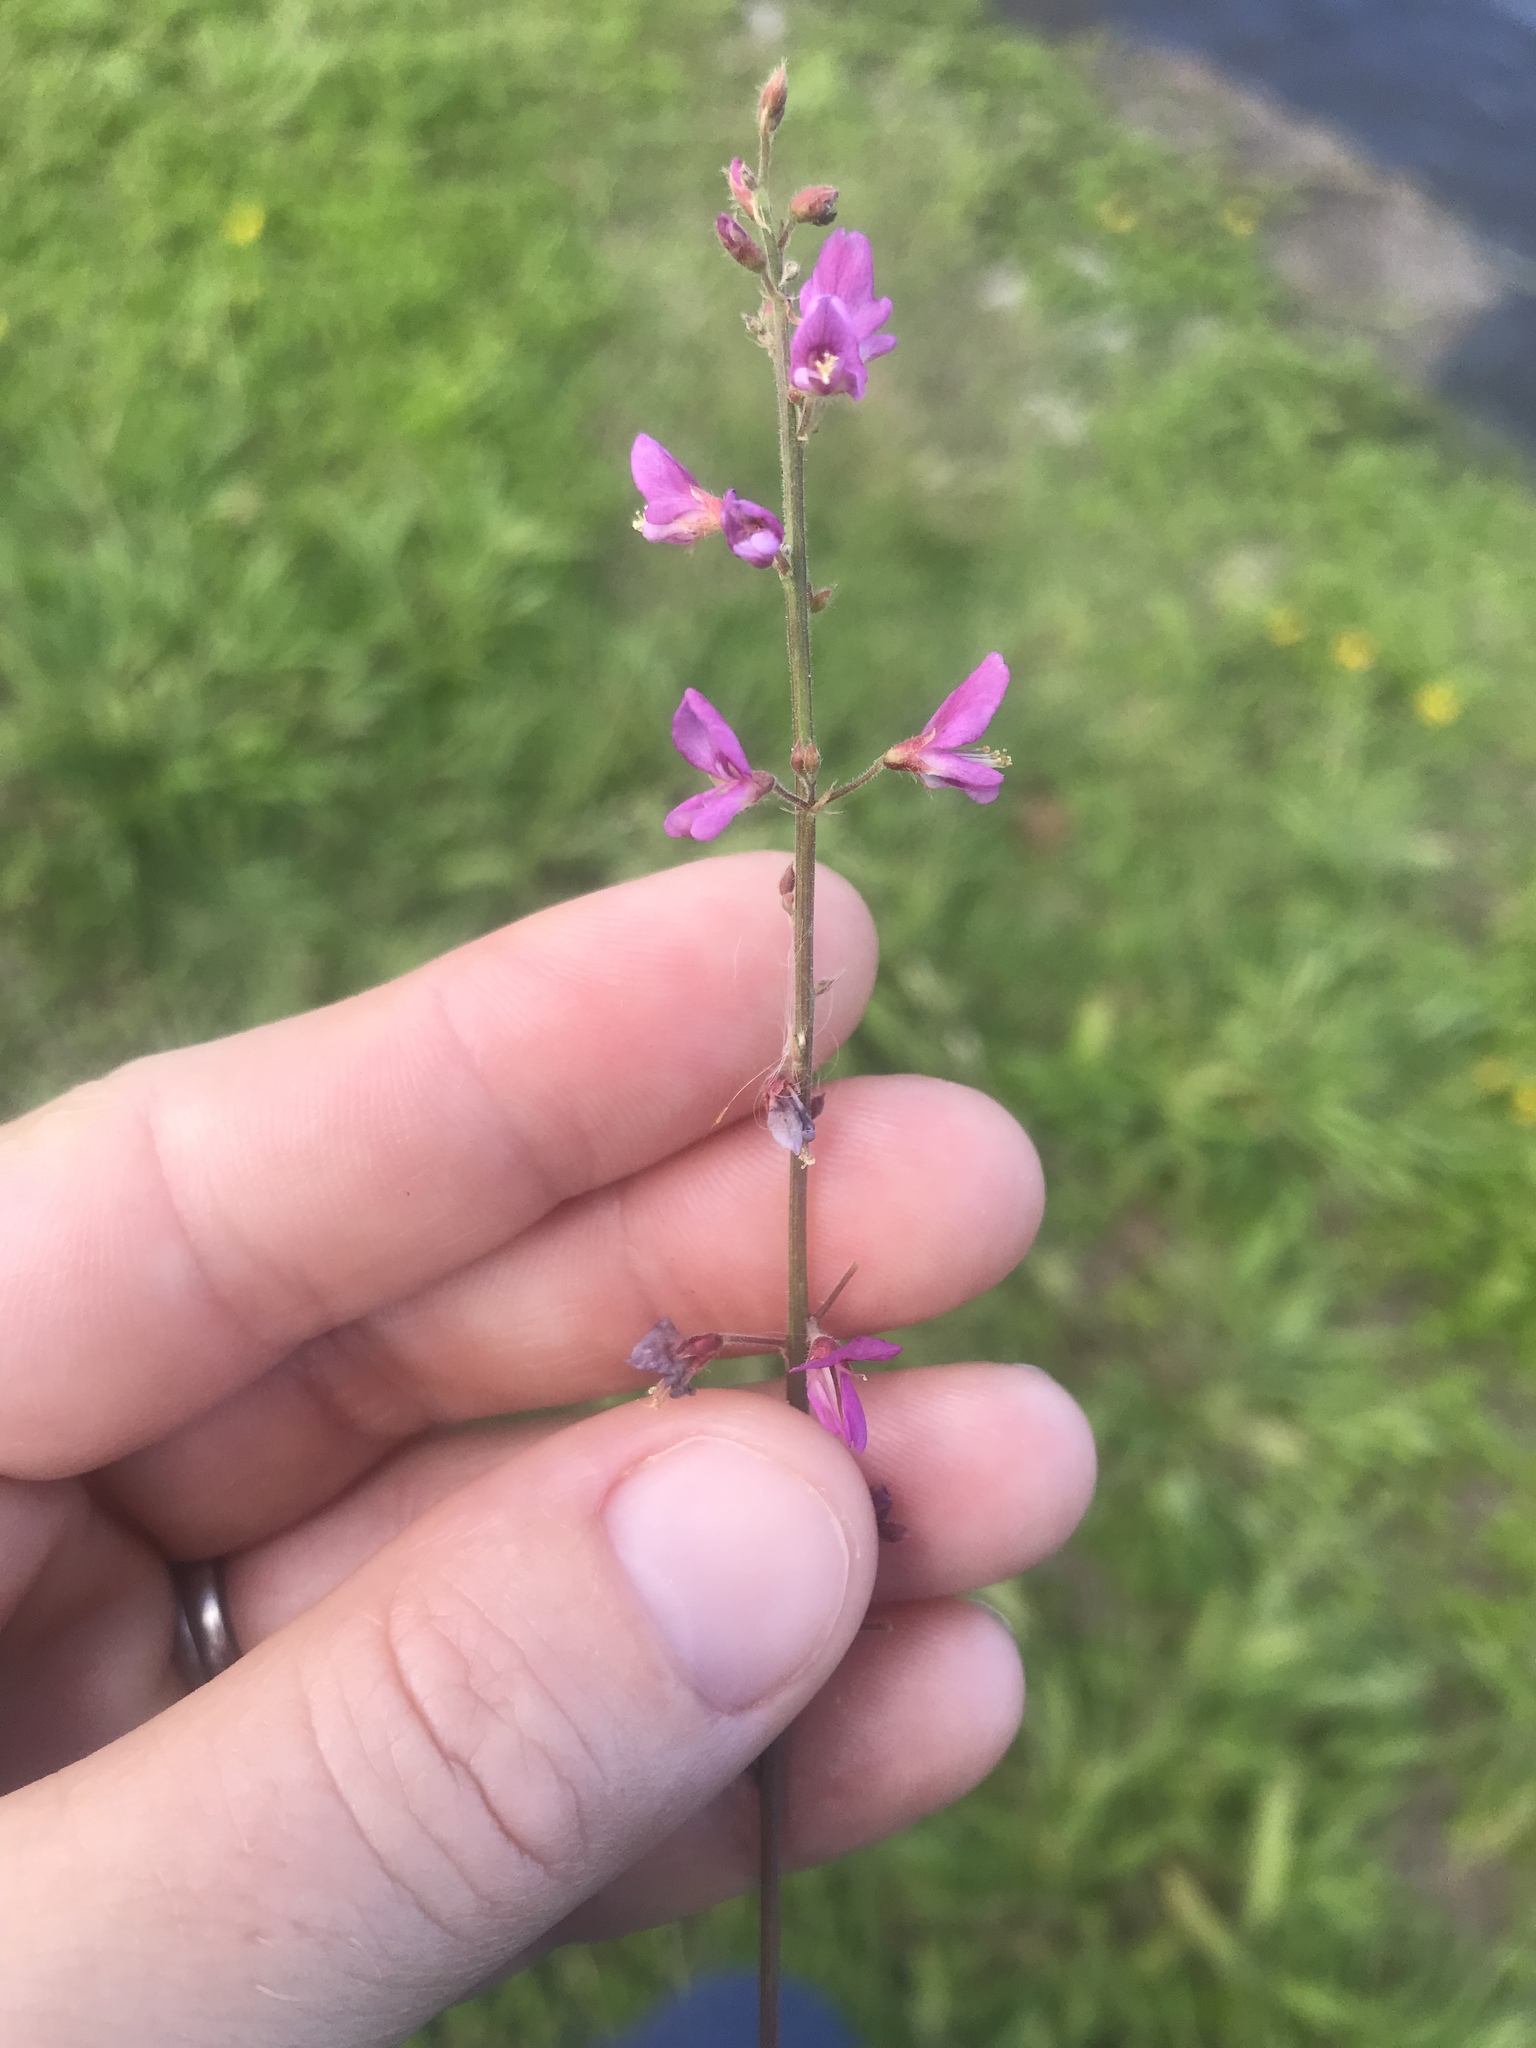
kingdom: Plantae
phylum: Tracheophyta
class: Magnoliopsida
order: Fabales
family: Fabaceae
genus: Desmodium
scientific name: Desmodium incanum
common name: Tickclover
